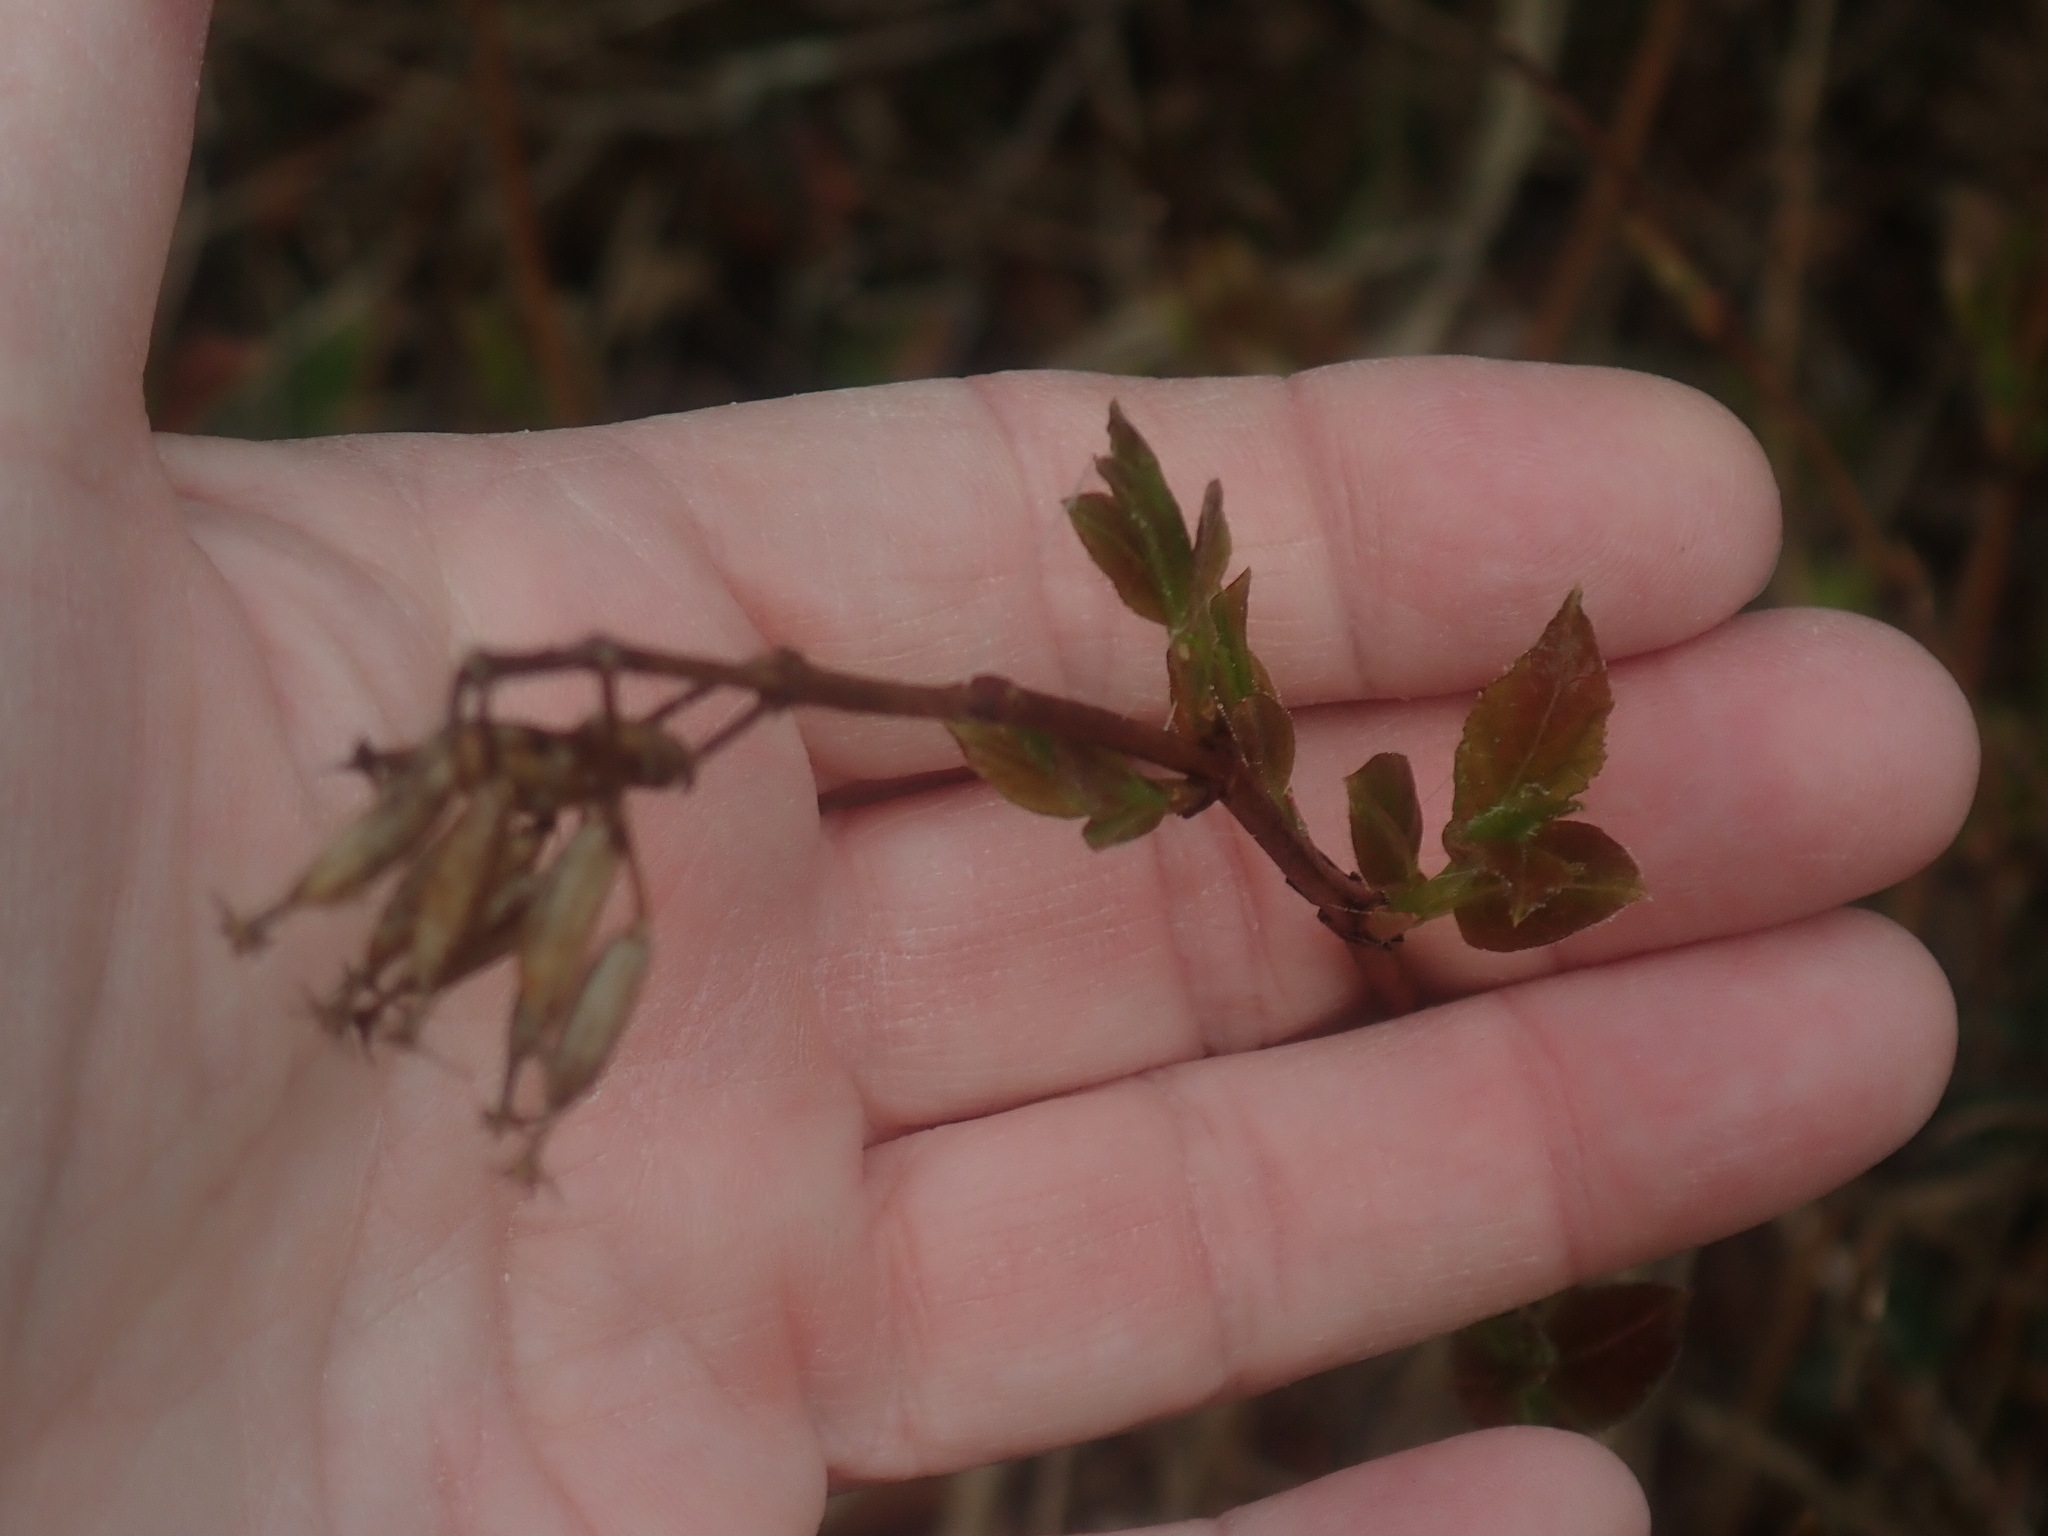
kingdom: Plantae
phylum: Tracheophyta
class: Magnoliopsida
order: Dipsacales
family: Caprifoliaceae
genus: Diervilla
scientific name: Diervilla lonicera
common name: Bush-honeysuckle
